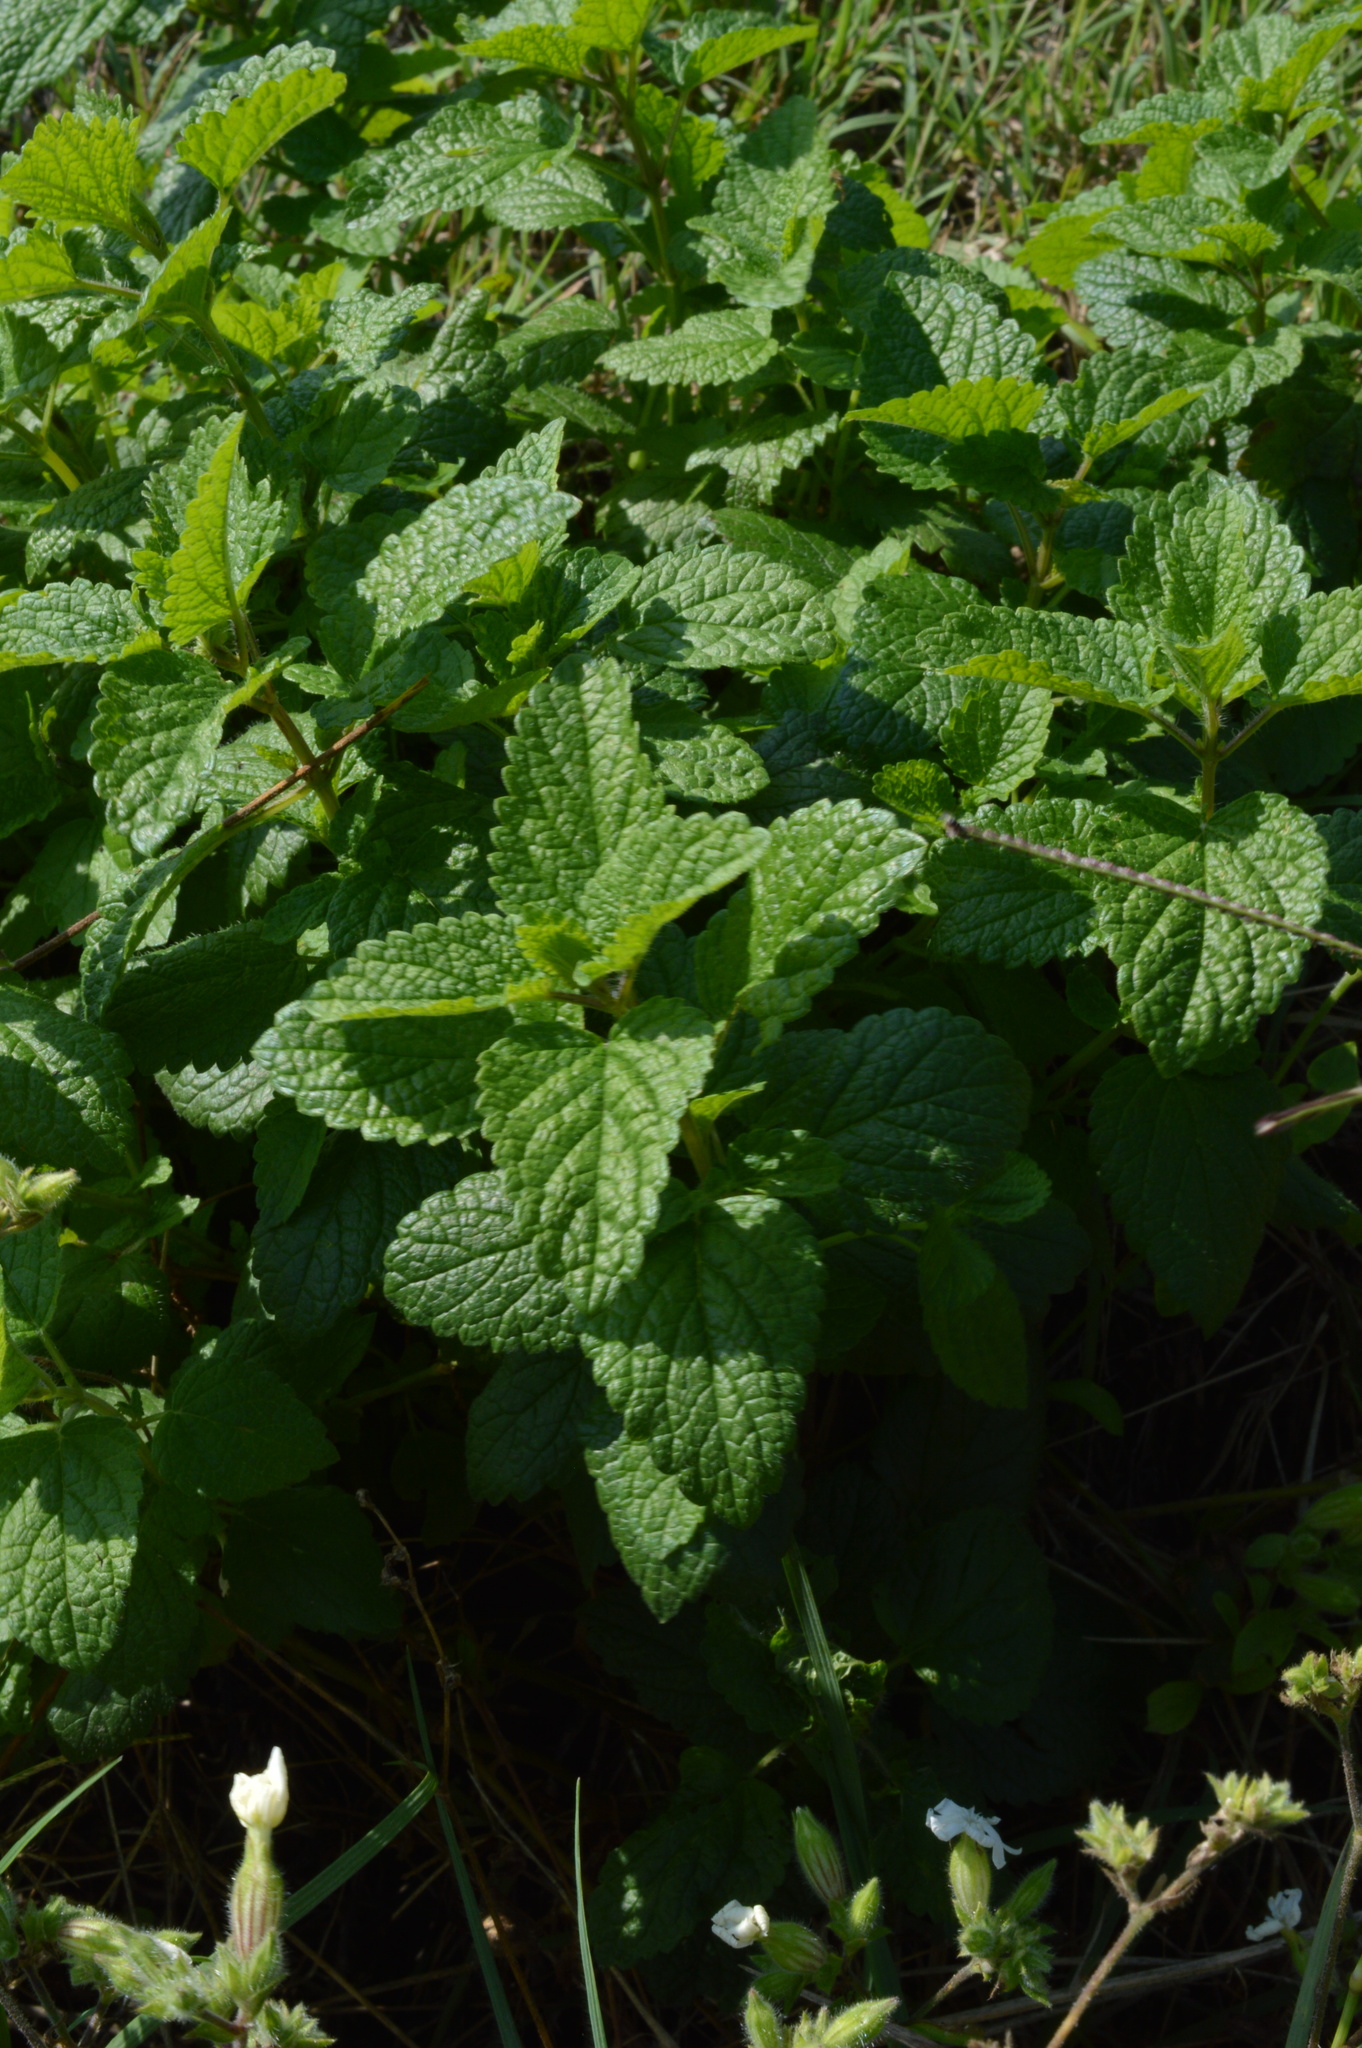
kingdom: Plantae
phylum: Tracheophyta
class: Magnoliopsida
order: Lamiales
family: Lamiaceae
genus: Melissa
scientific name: Melissa officinalis
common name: Balm
